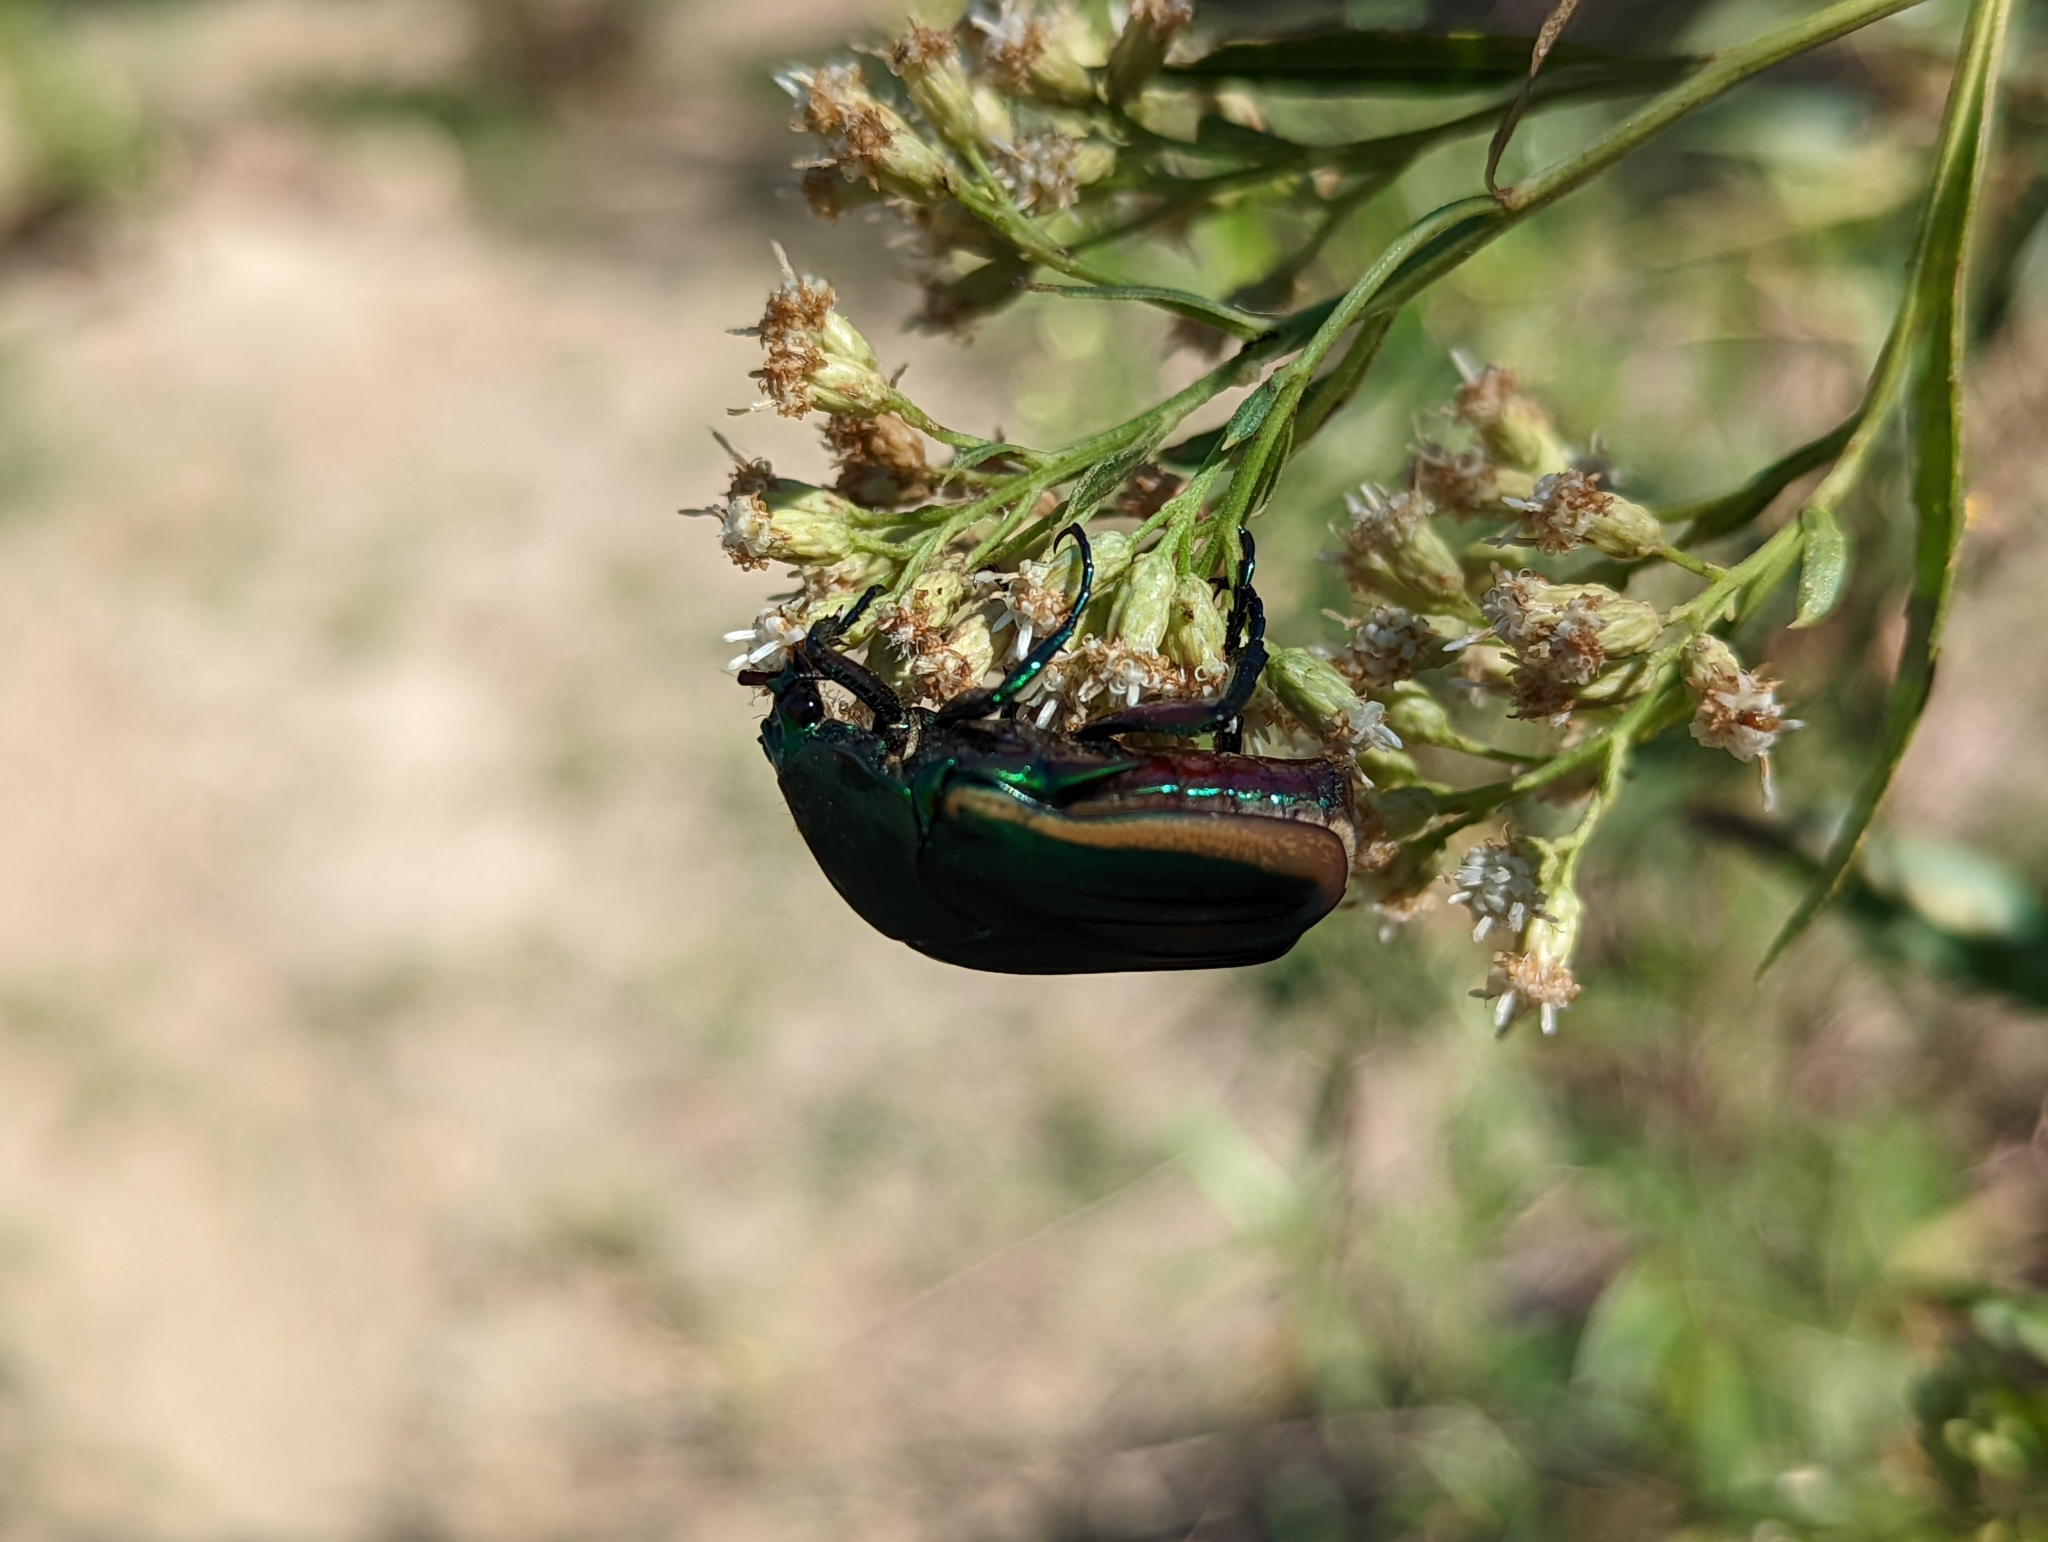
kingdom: Animalia
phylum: Arthropoda
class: Insecta
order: Coleoptera
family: Scarabaeidae
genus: Cotinis
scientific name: Cotinis mutabilis
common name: Figeater beetle
